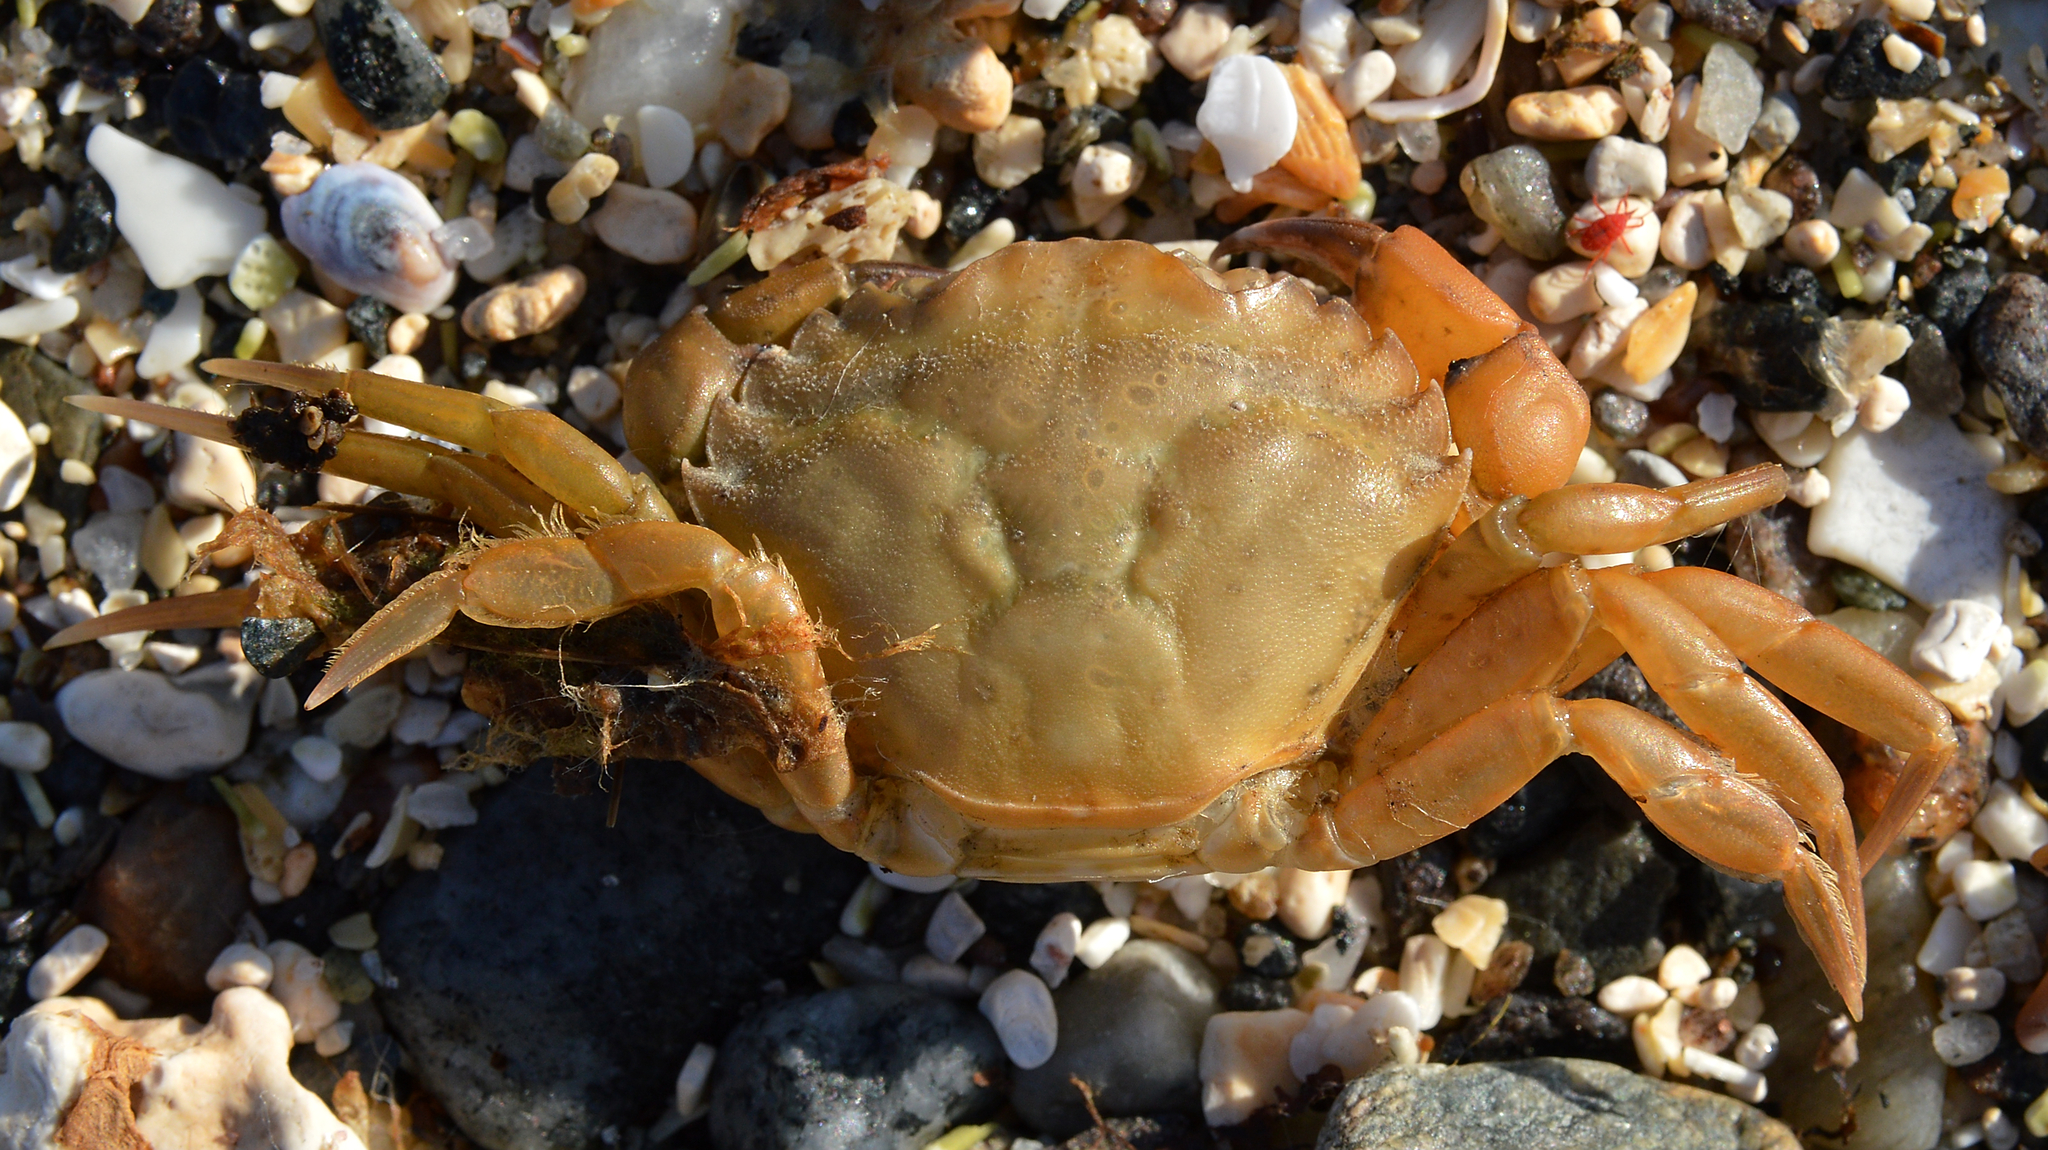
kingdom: Animalia
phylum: Arthropoda
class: Malacostraca
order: Decapoda
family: Carcinidae
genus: Carcinus
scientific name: Carcinus maenas
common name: European green crab
